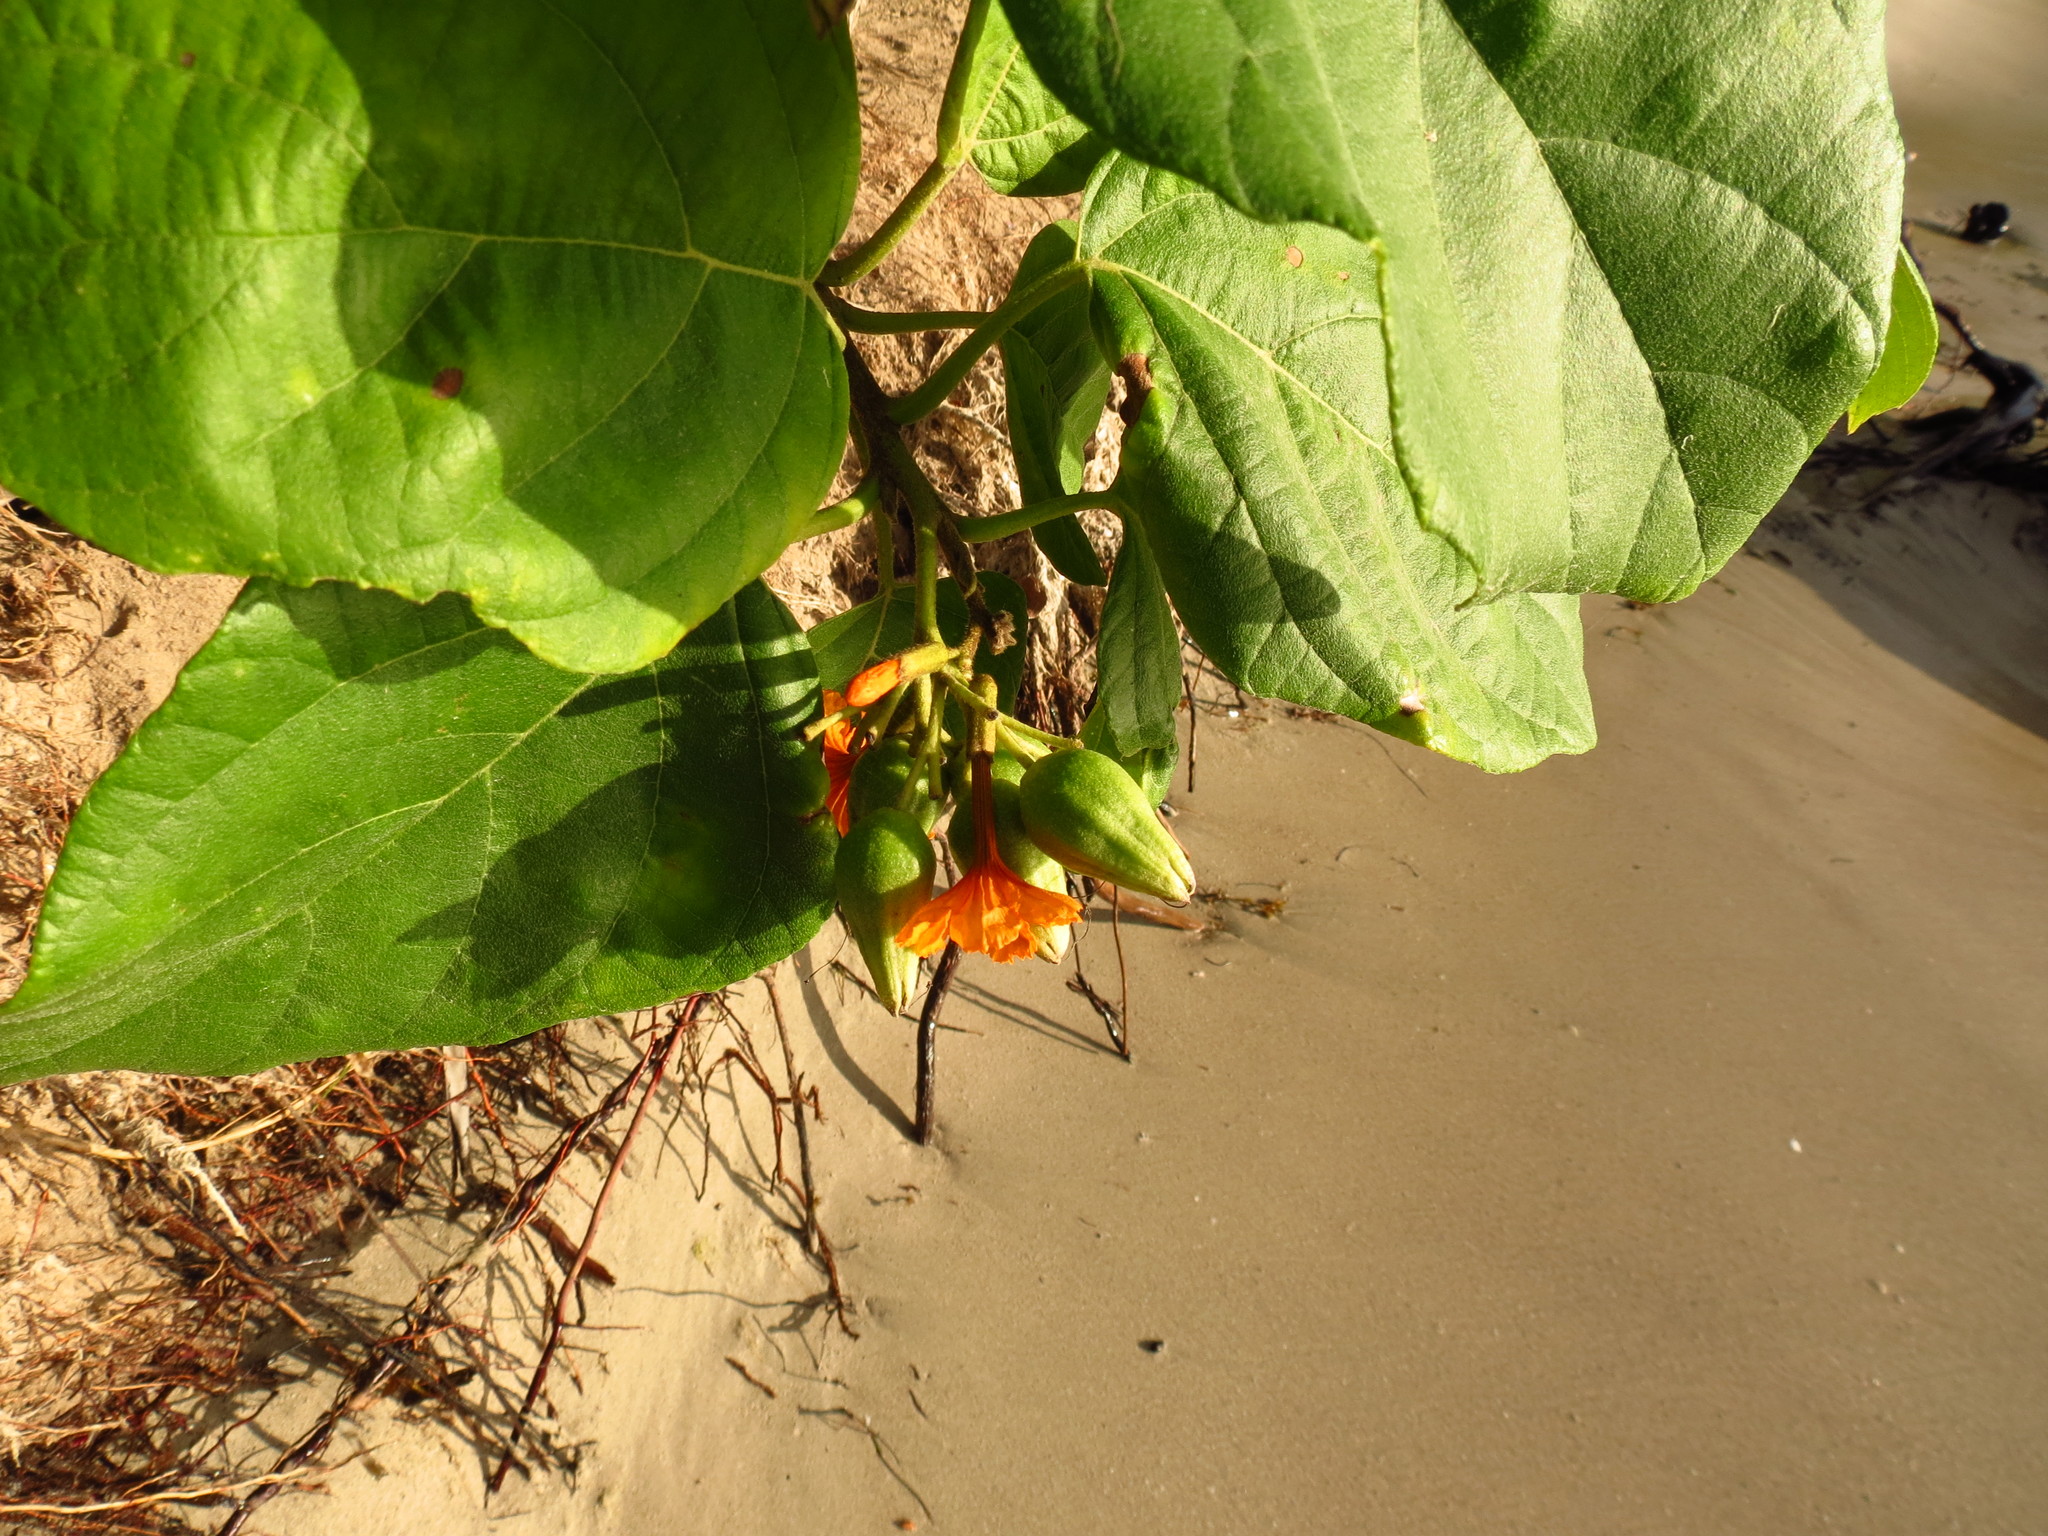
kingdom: Plantae
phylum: Tracheophyta
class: Magnoliopsida
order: Boraginales
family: Cordiaceae
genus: Cordia
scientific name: Cordia sebestena
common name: Largeleaf geigertree
